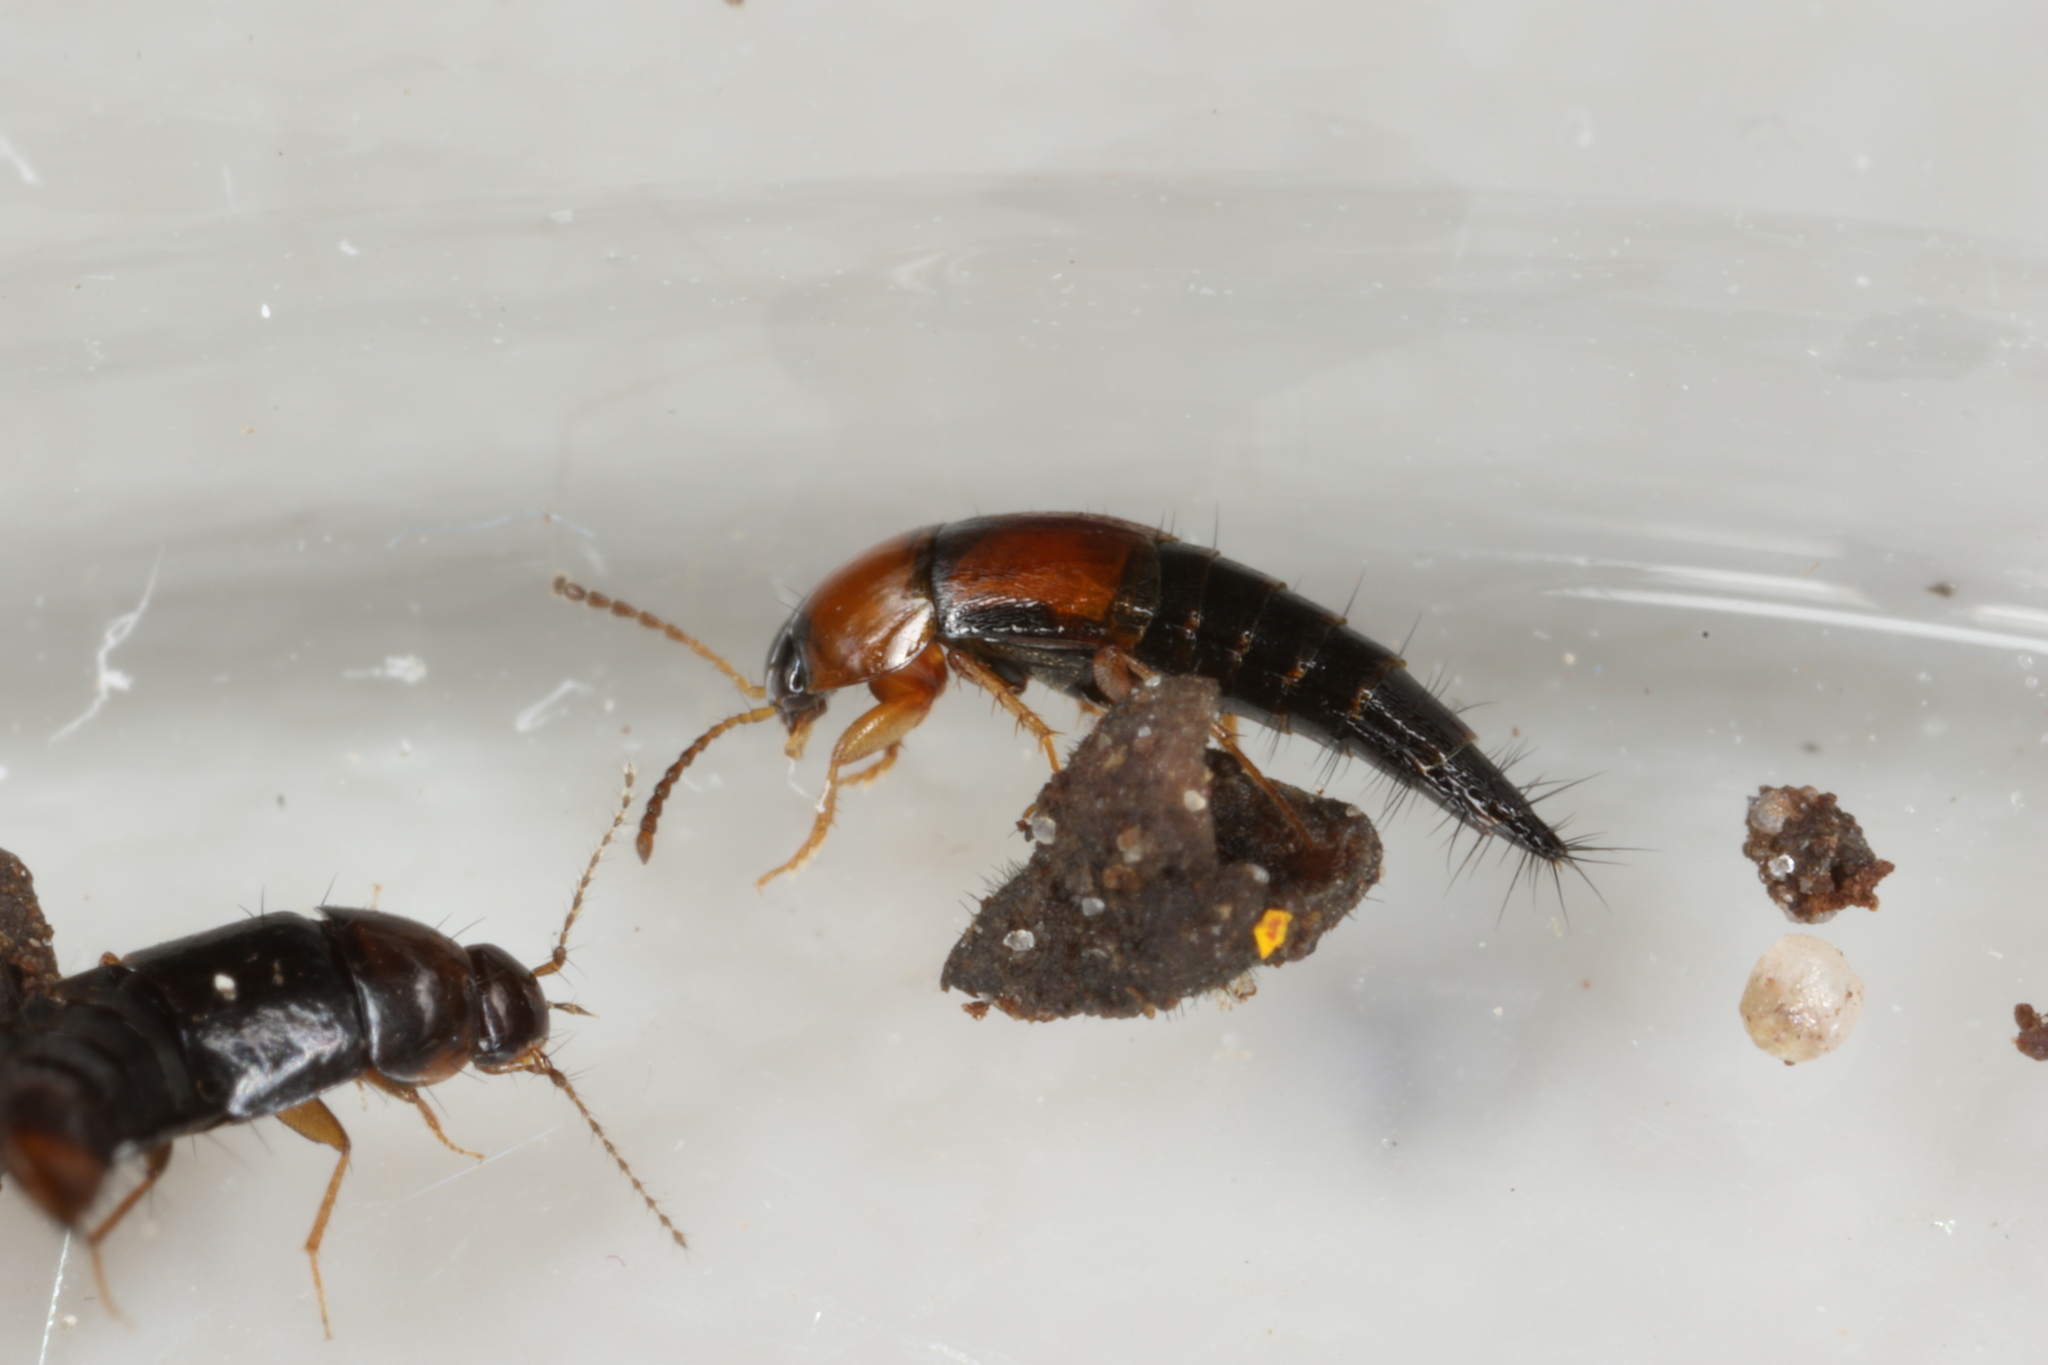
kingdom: Animalia
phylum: Arthropoda
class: Insecta
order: Coleoptera
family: Staphylinidae
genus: Tachyporus
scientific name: Tachyporus dispar
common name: Staph beetle
